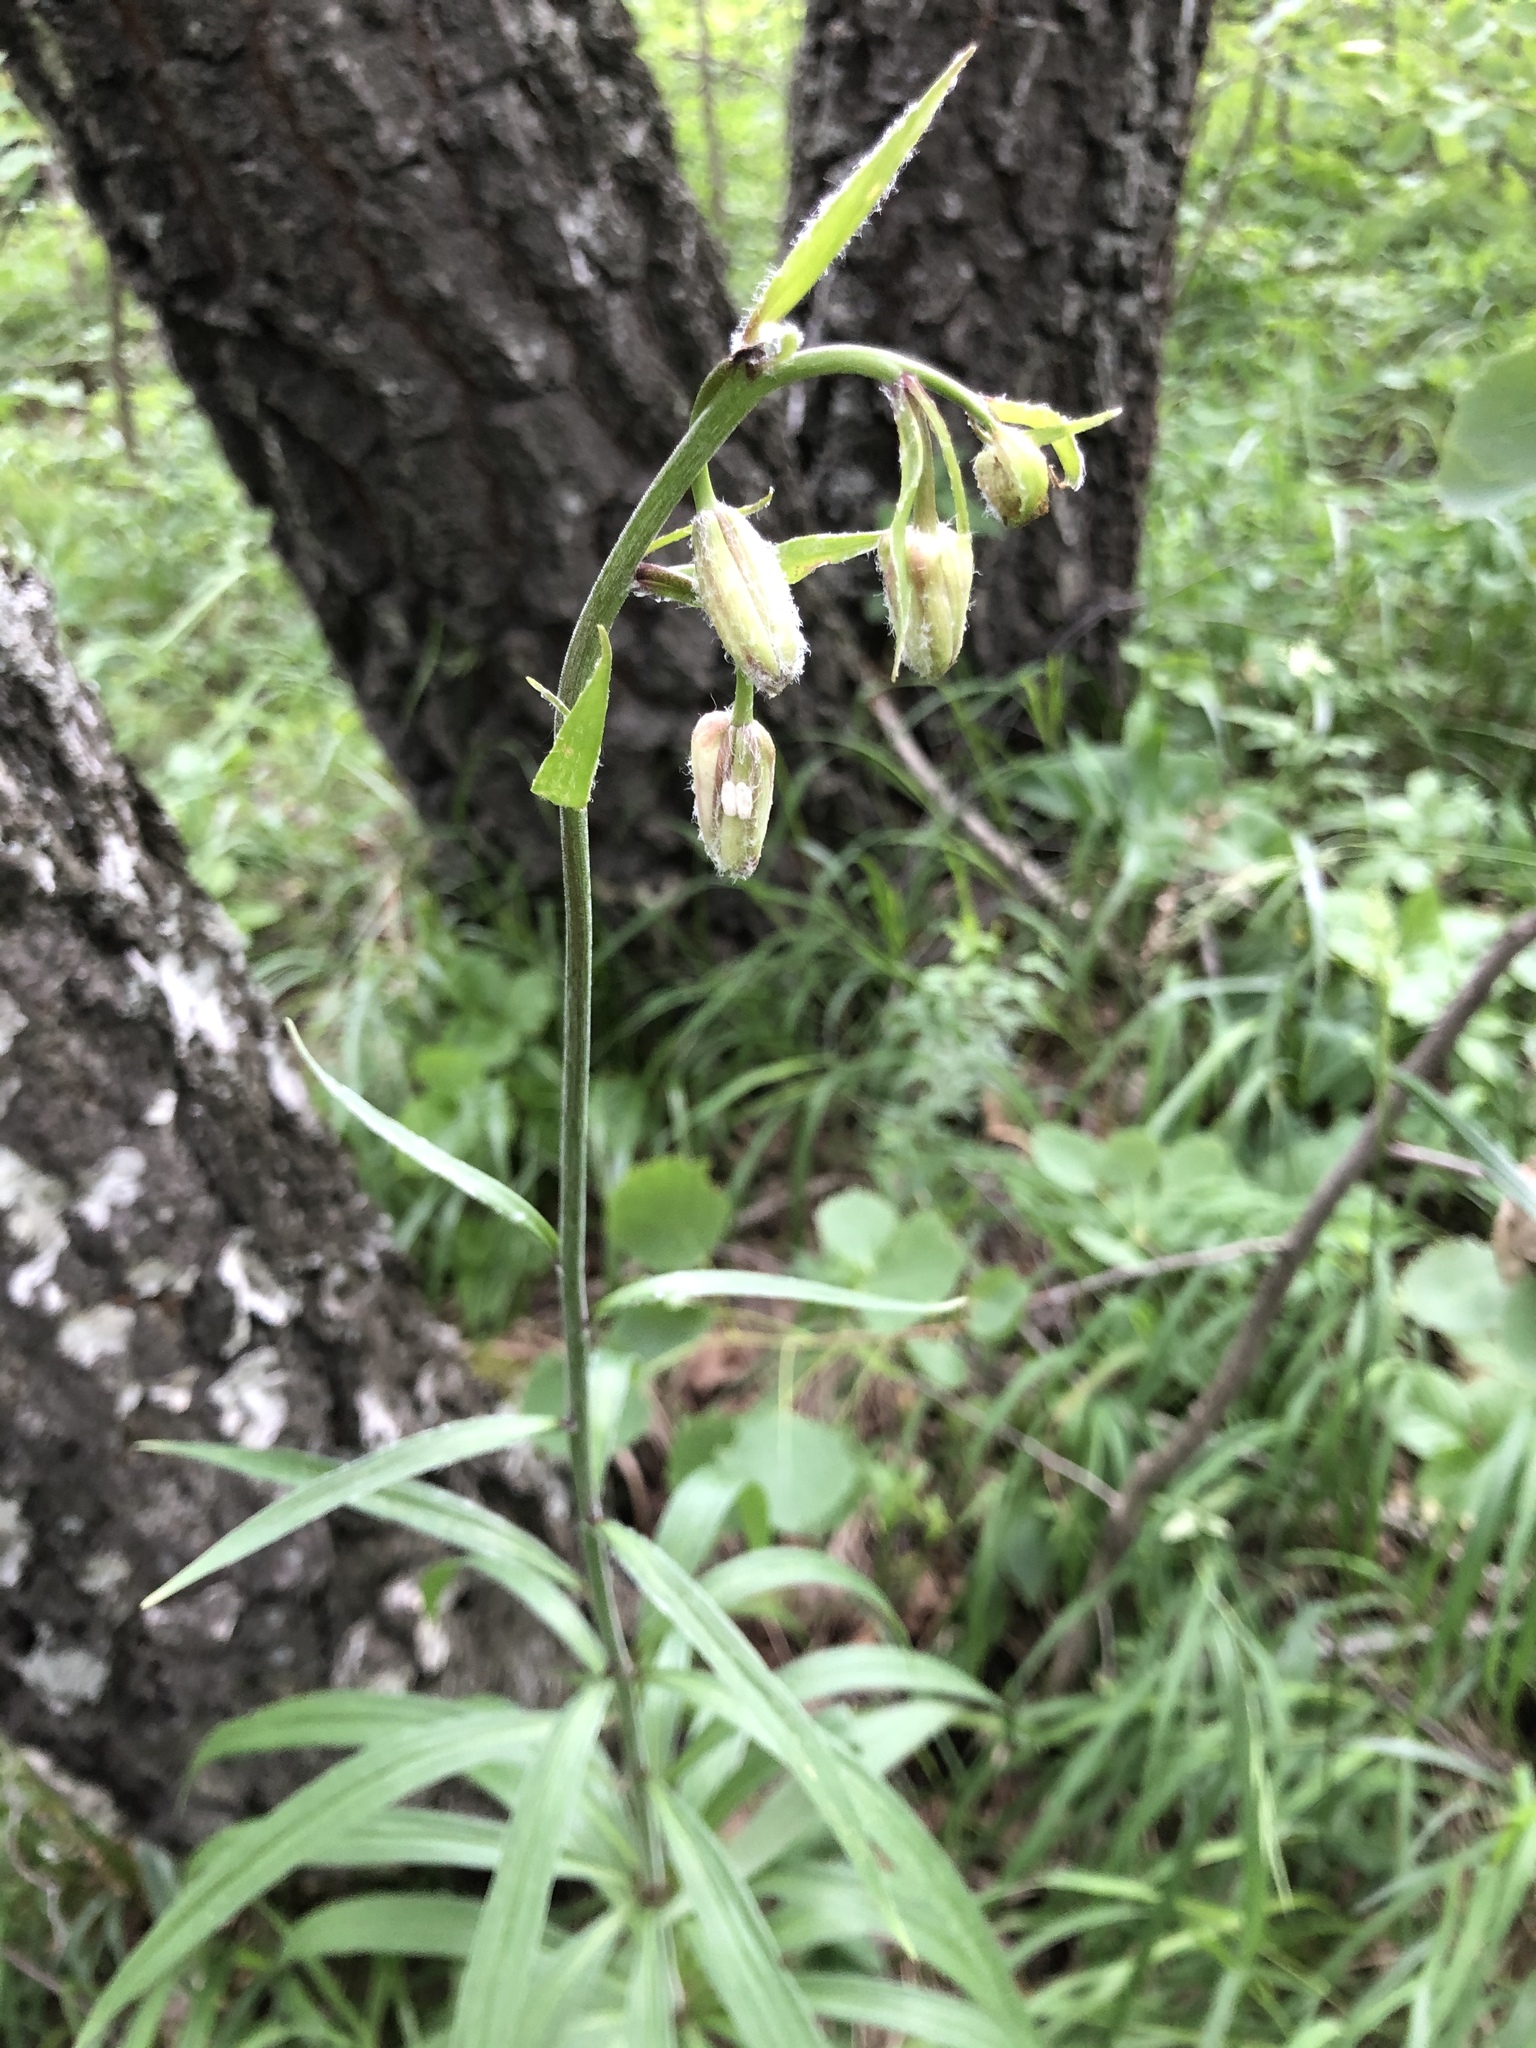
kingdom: Plantae
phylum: Tracheophyta
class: Liliopsida
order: Liliales
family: Liliaceae
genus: Lilium
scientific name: Lilium martagon
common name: Martagon lily
